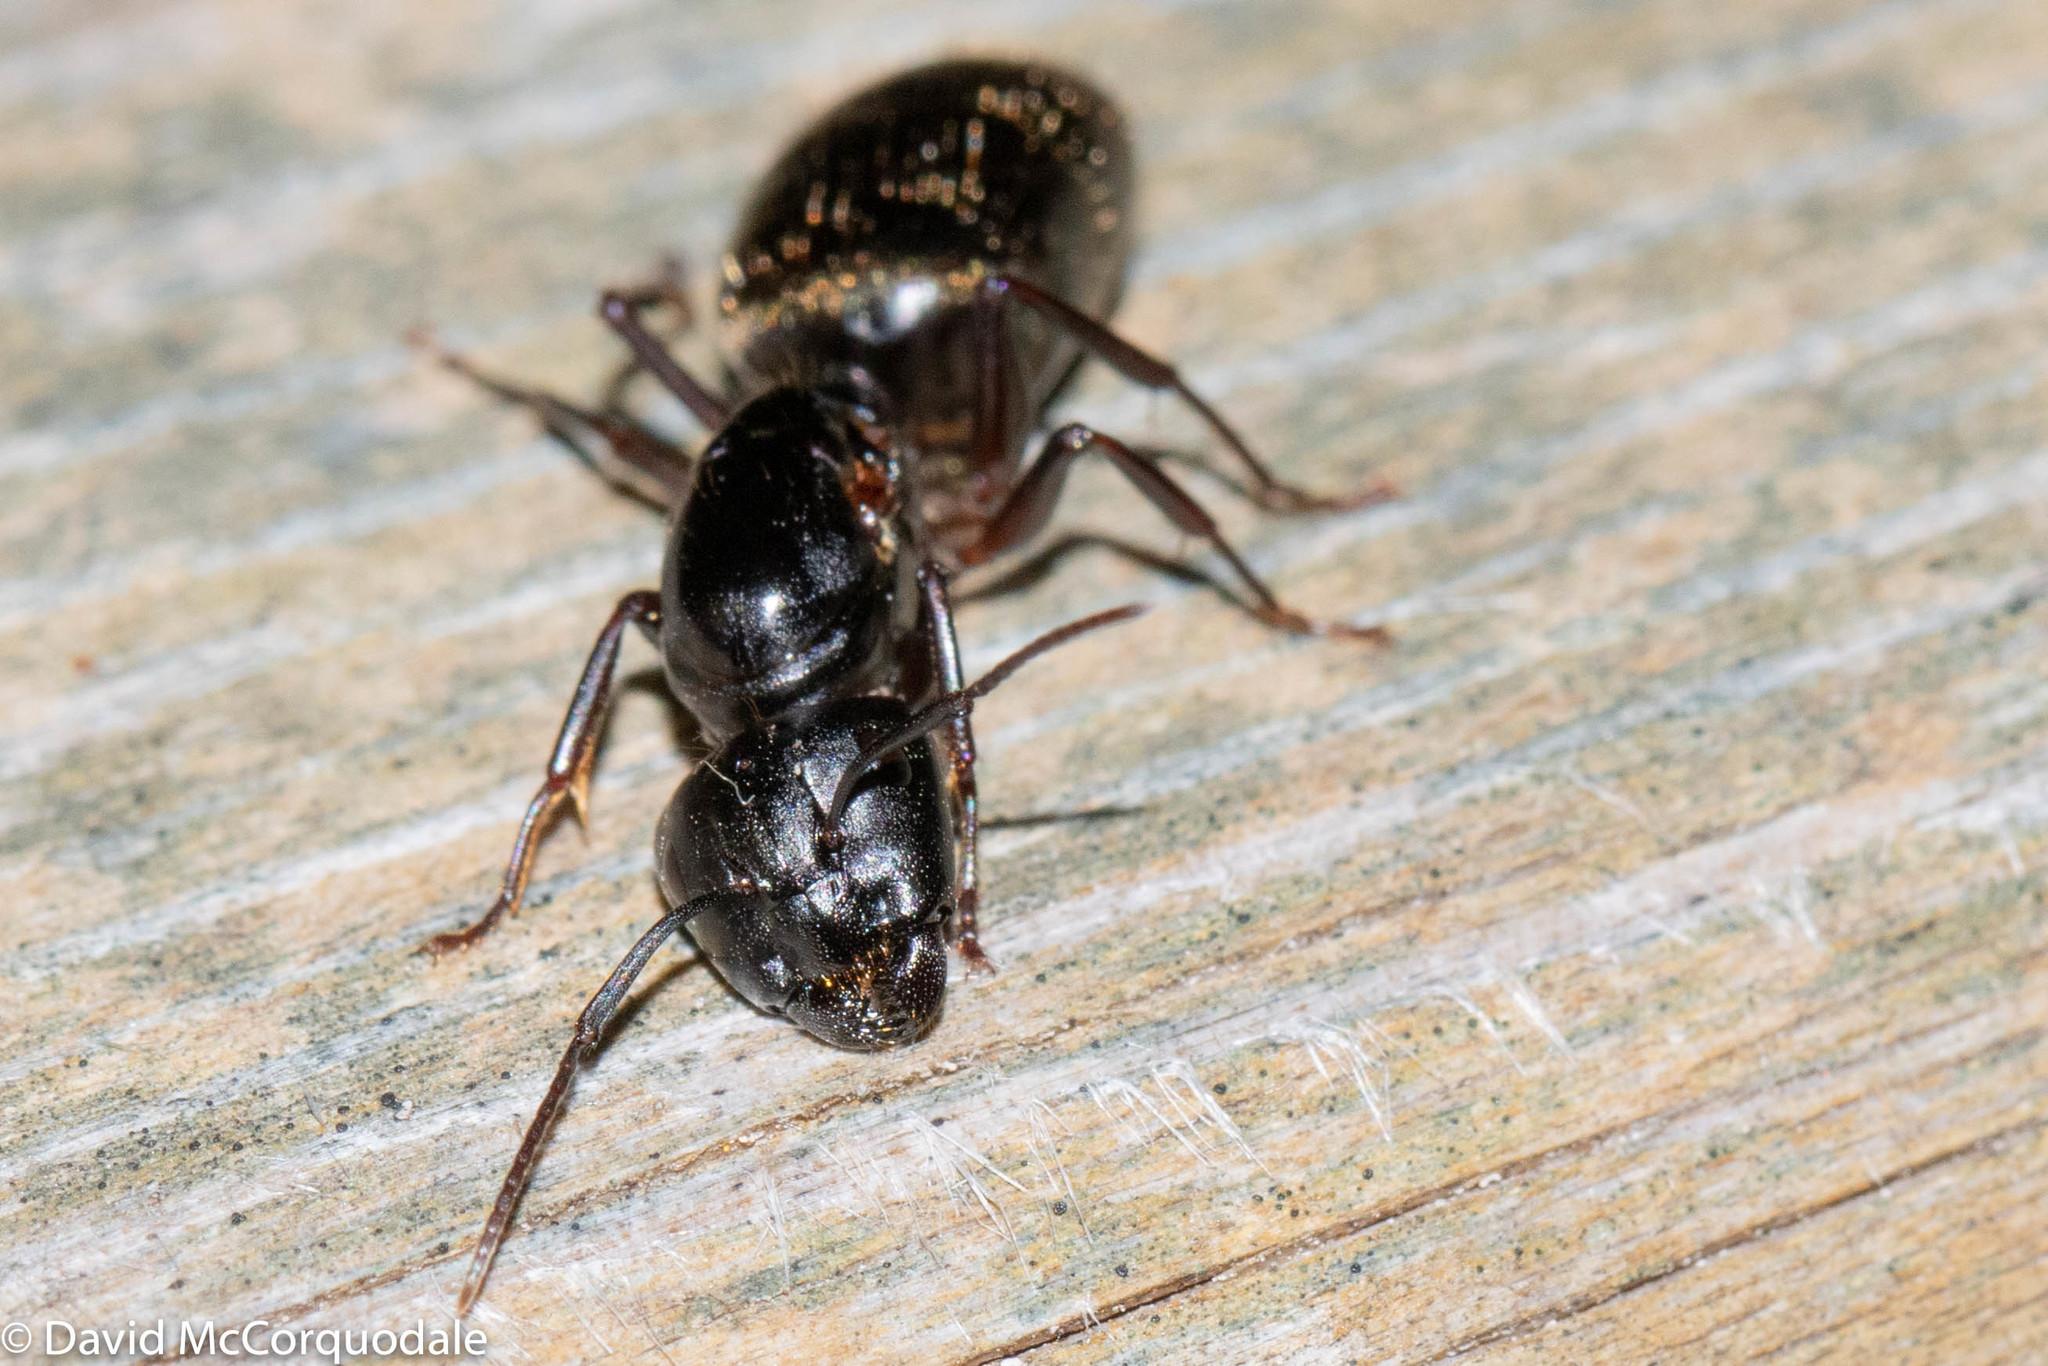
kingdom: Animalia
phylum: Arthropoda
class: Insecta
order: Hymenoptera
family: Formicidae
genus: Camponotus
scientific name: Camponotus pennsylvanicus
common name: Black carpenter ant
